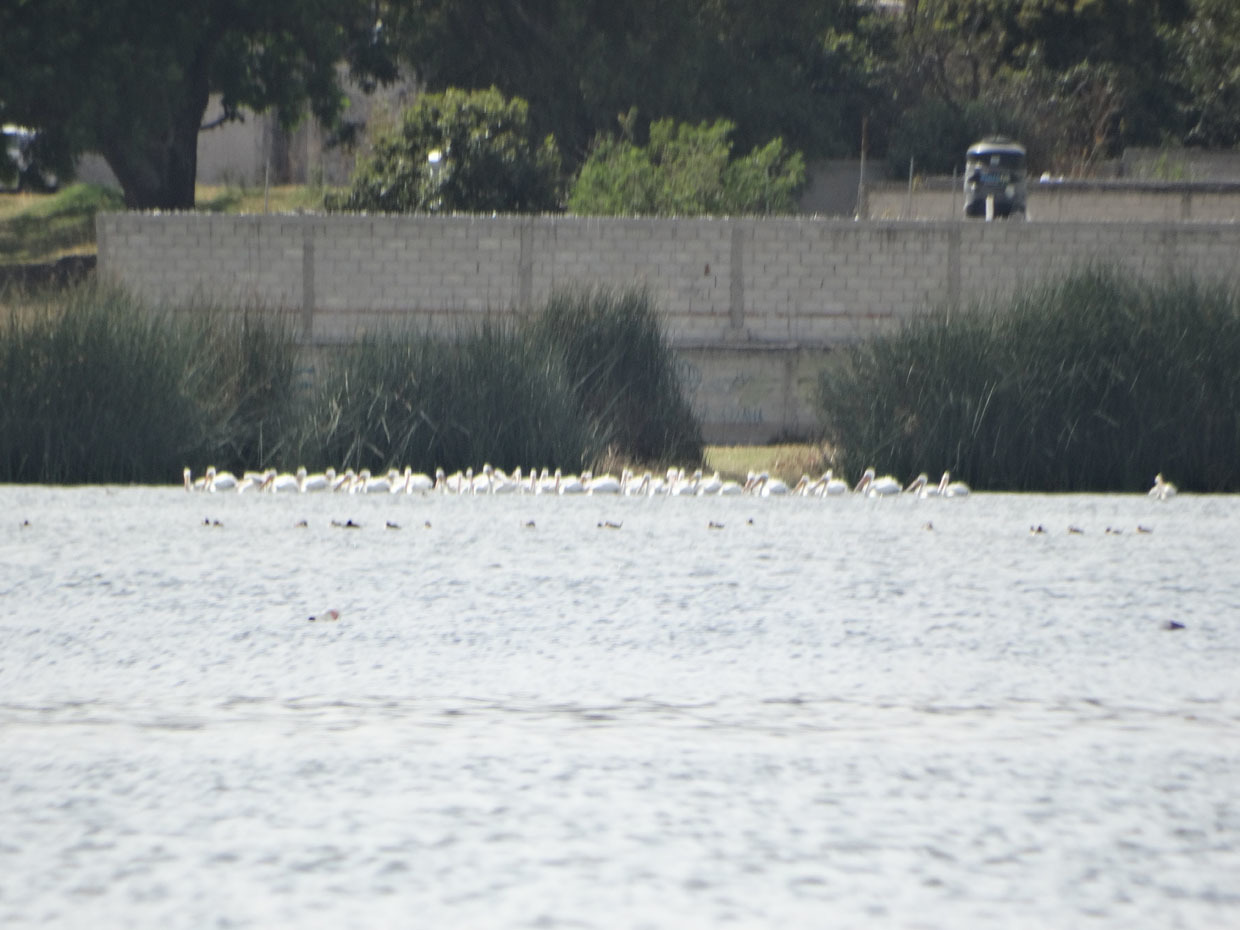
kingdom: Animalia
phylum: Chordata
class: Aves
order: Pelecaniformes
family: Pelecanidae
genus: Pelecanus
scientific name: Pelecanus erythrorhynchos
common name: American white pelican
